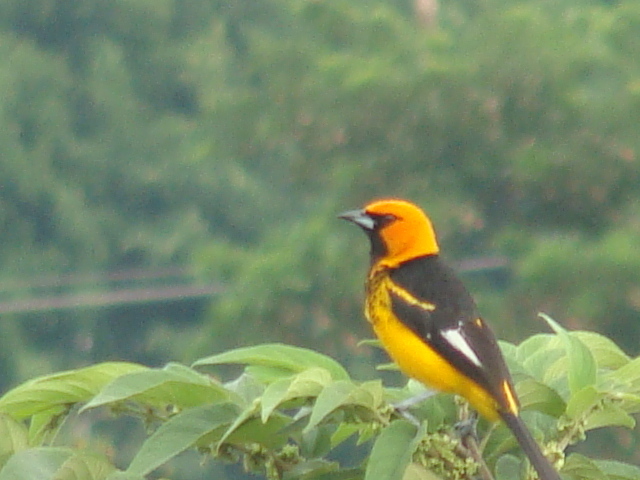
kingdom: Animalia
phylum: Chordata
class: Aves
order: Passeriformes
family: Icteridae
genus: Icterus
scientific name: Icterus pectoralis
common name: Spot-breasted oriole
